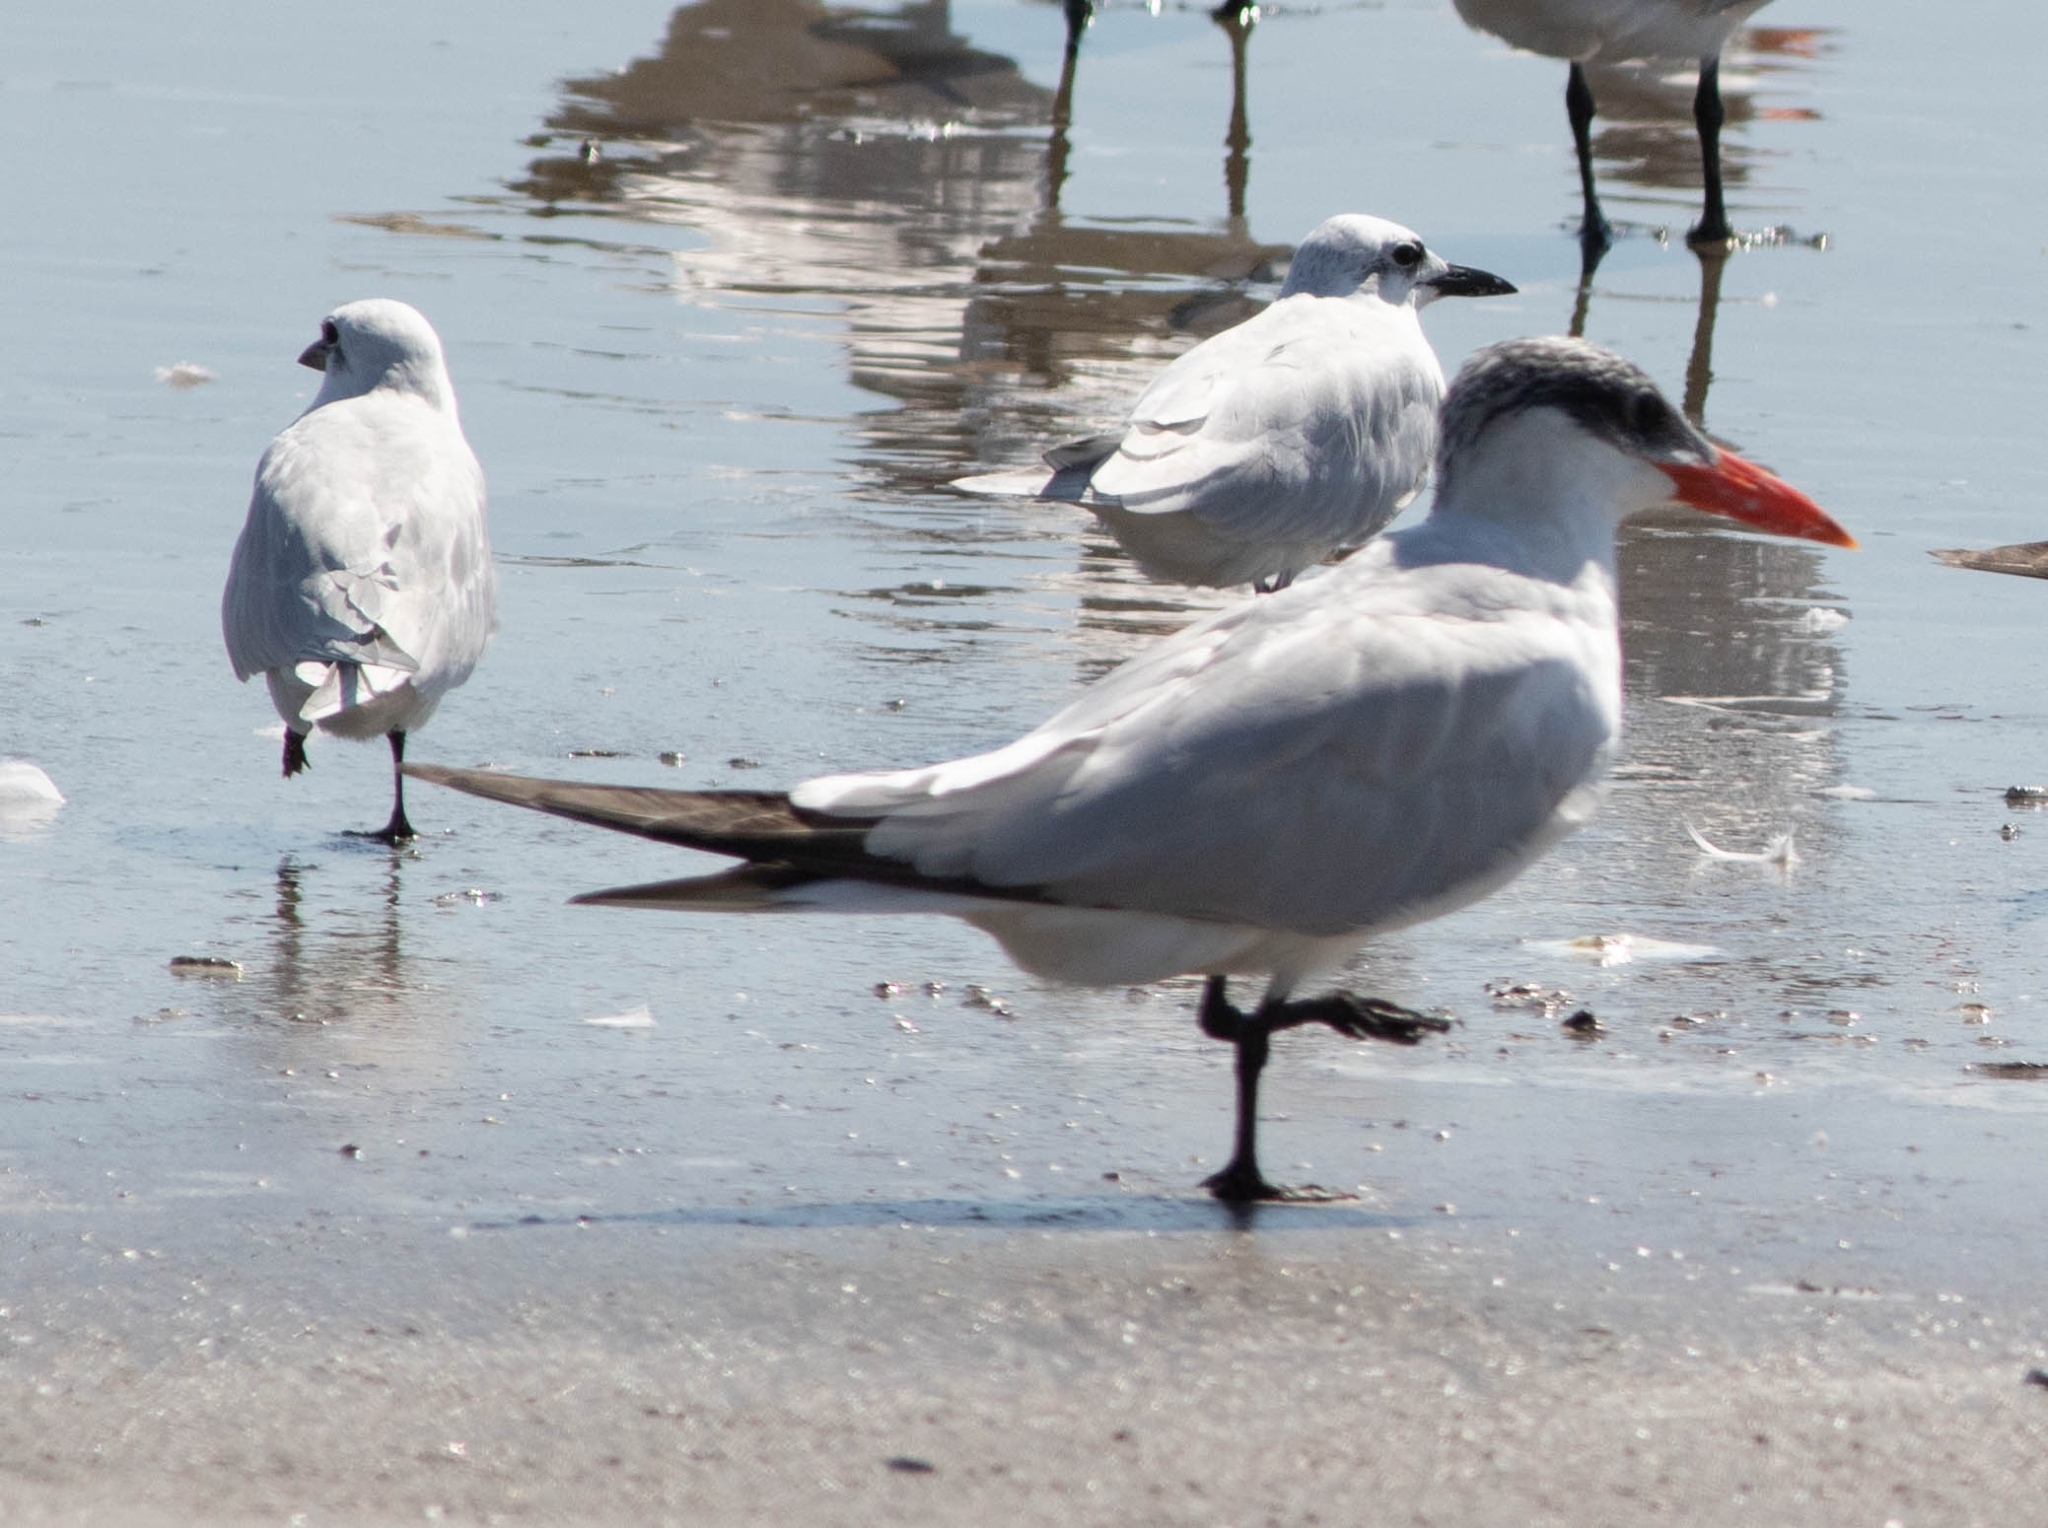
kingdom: Animalia
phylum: Chordata
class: Aves
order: Charadriiformes
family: Laridae
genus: Hydroprogne
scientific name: Hydroprogne caspia
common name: Caspian tern
